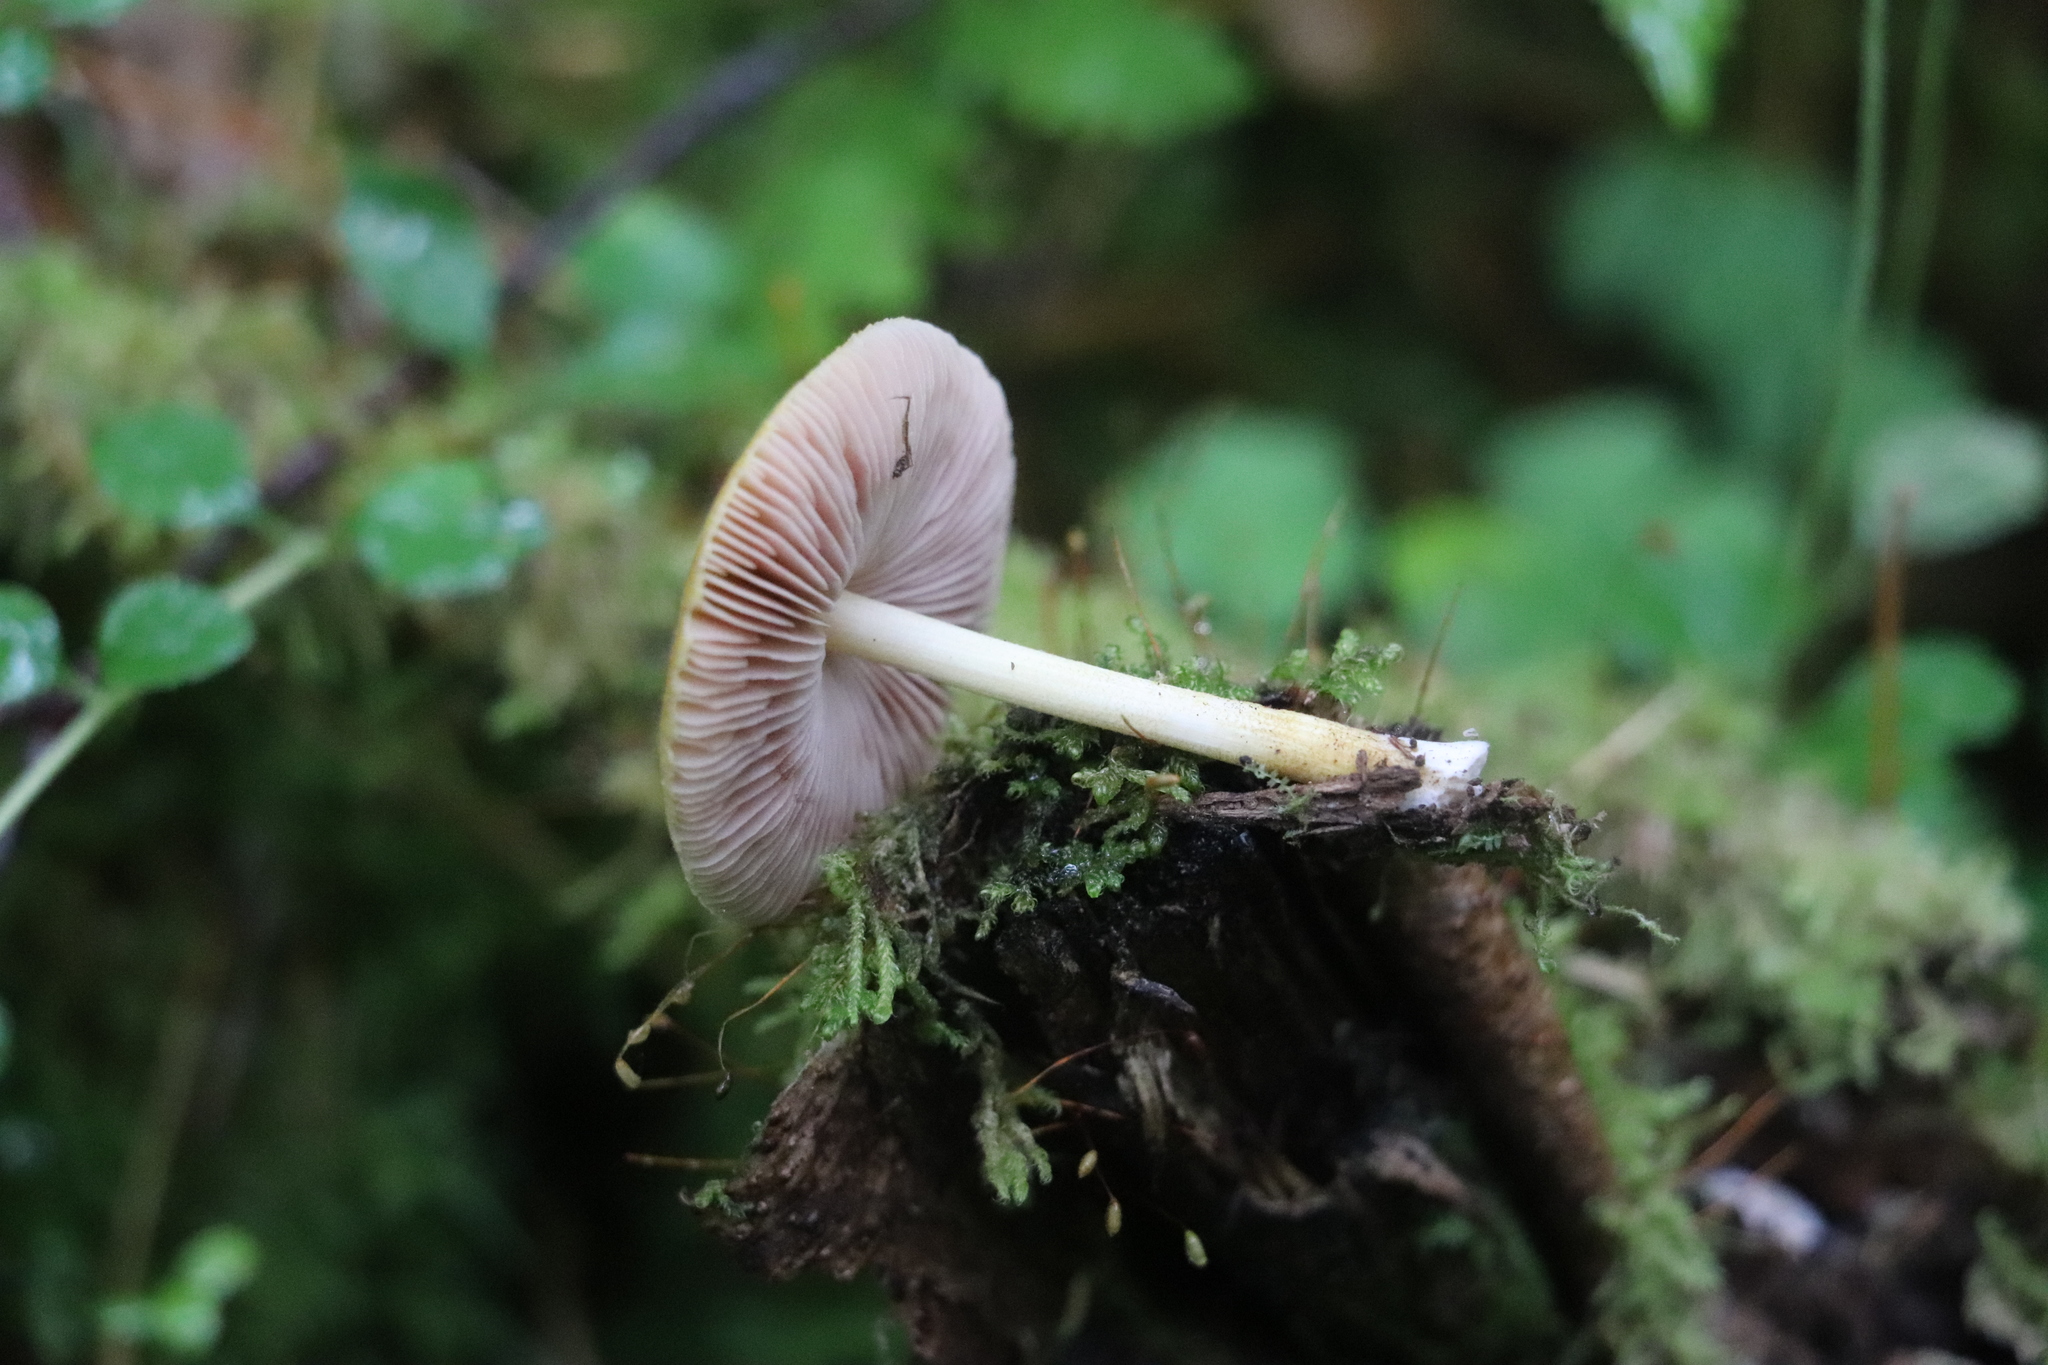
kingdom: Fungi
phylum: Basidiomycota
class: Agaricomycetes
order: Agaricales
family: Pluteaceae
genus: Pluteus
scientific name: Pluteus leoninus
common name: Lion shield
